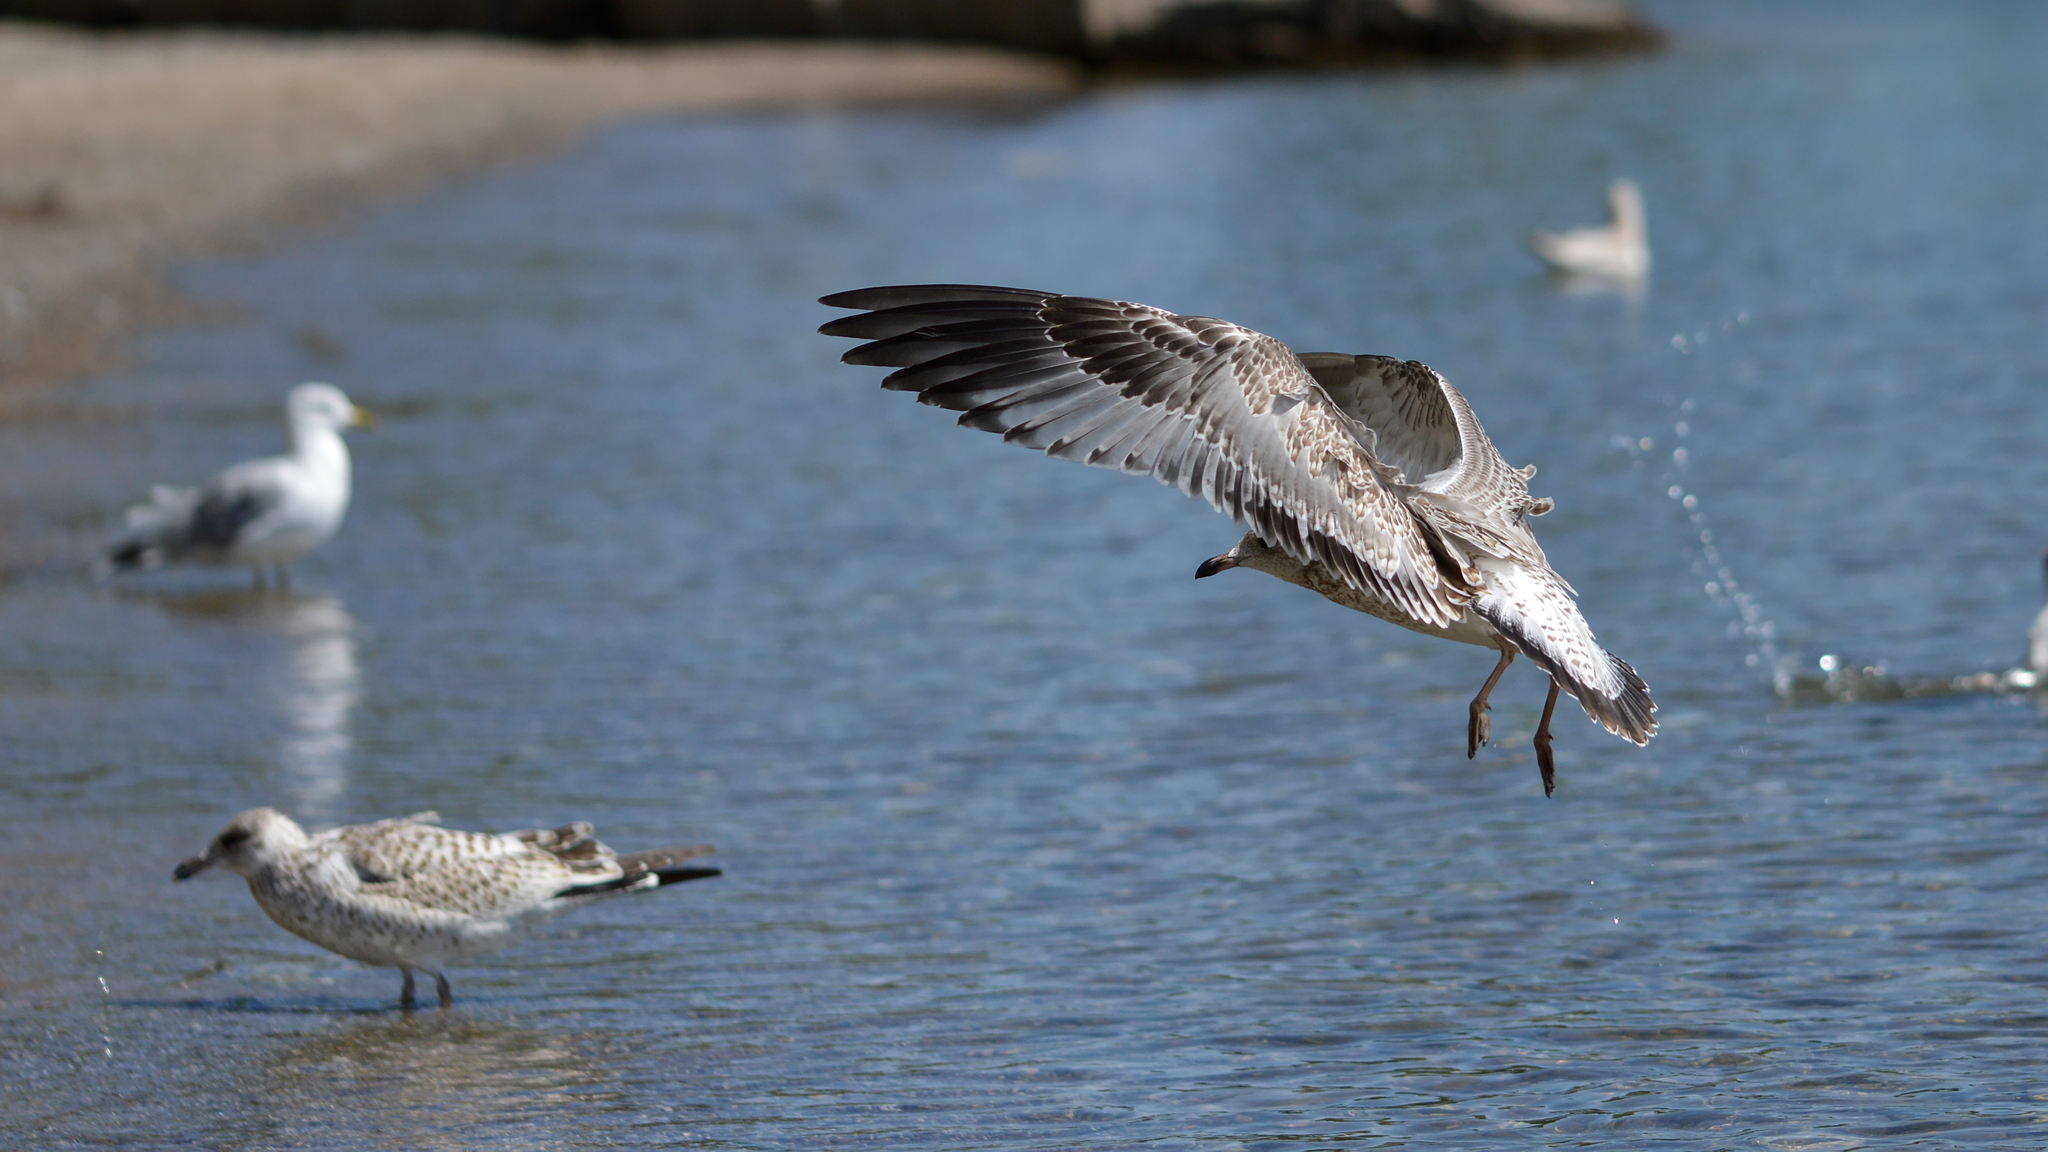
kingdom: Animalia
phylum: Chordata
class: Aves
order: Charadriiformes
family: Laridae
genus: Larus
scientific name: Larus delawarensis
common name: Ring-billed gull
